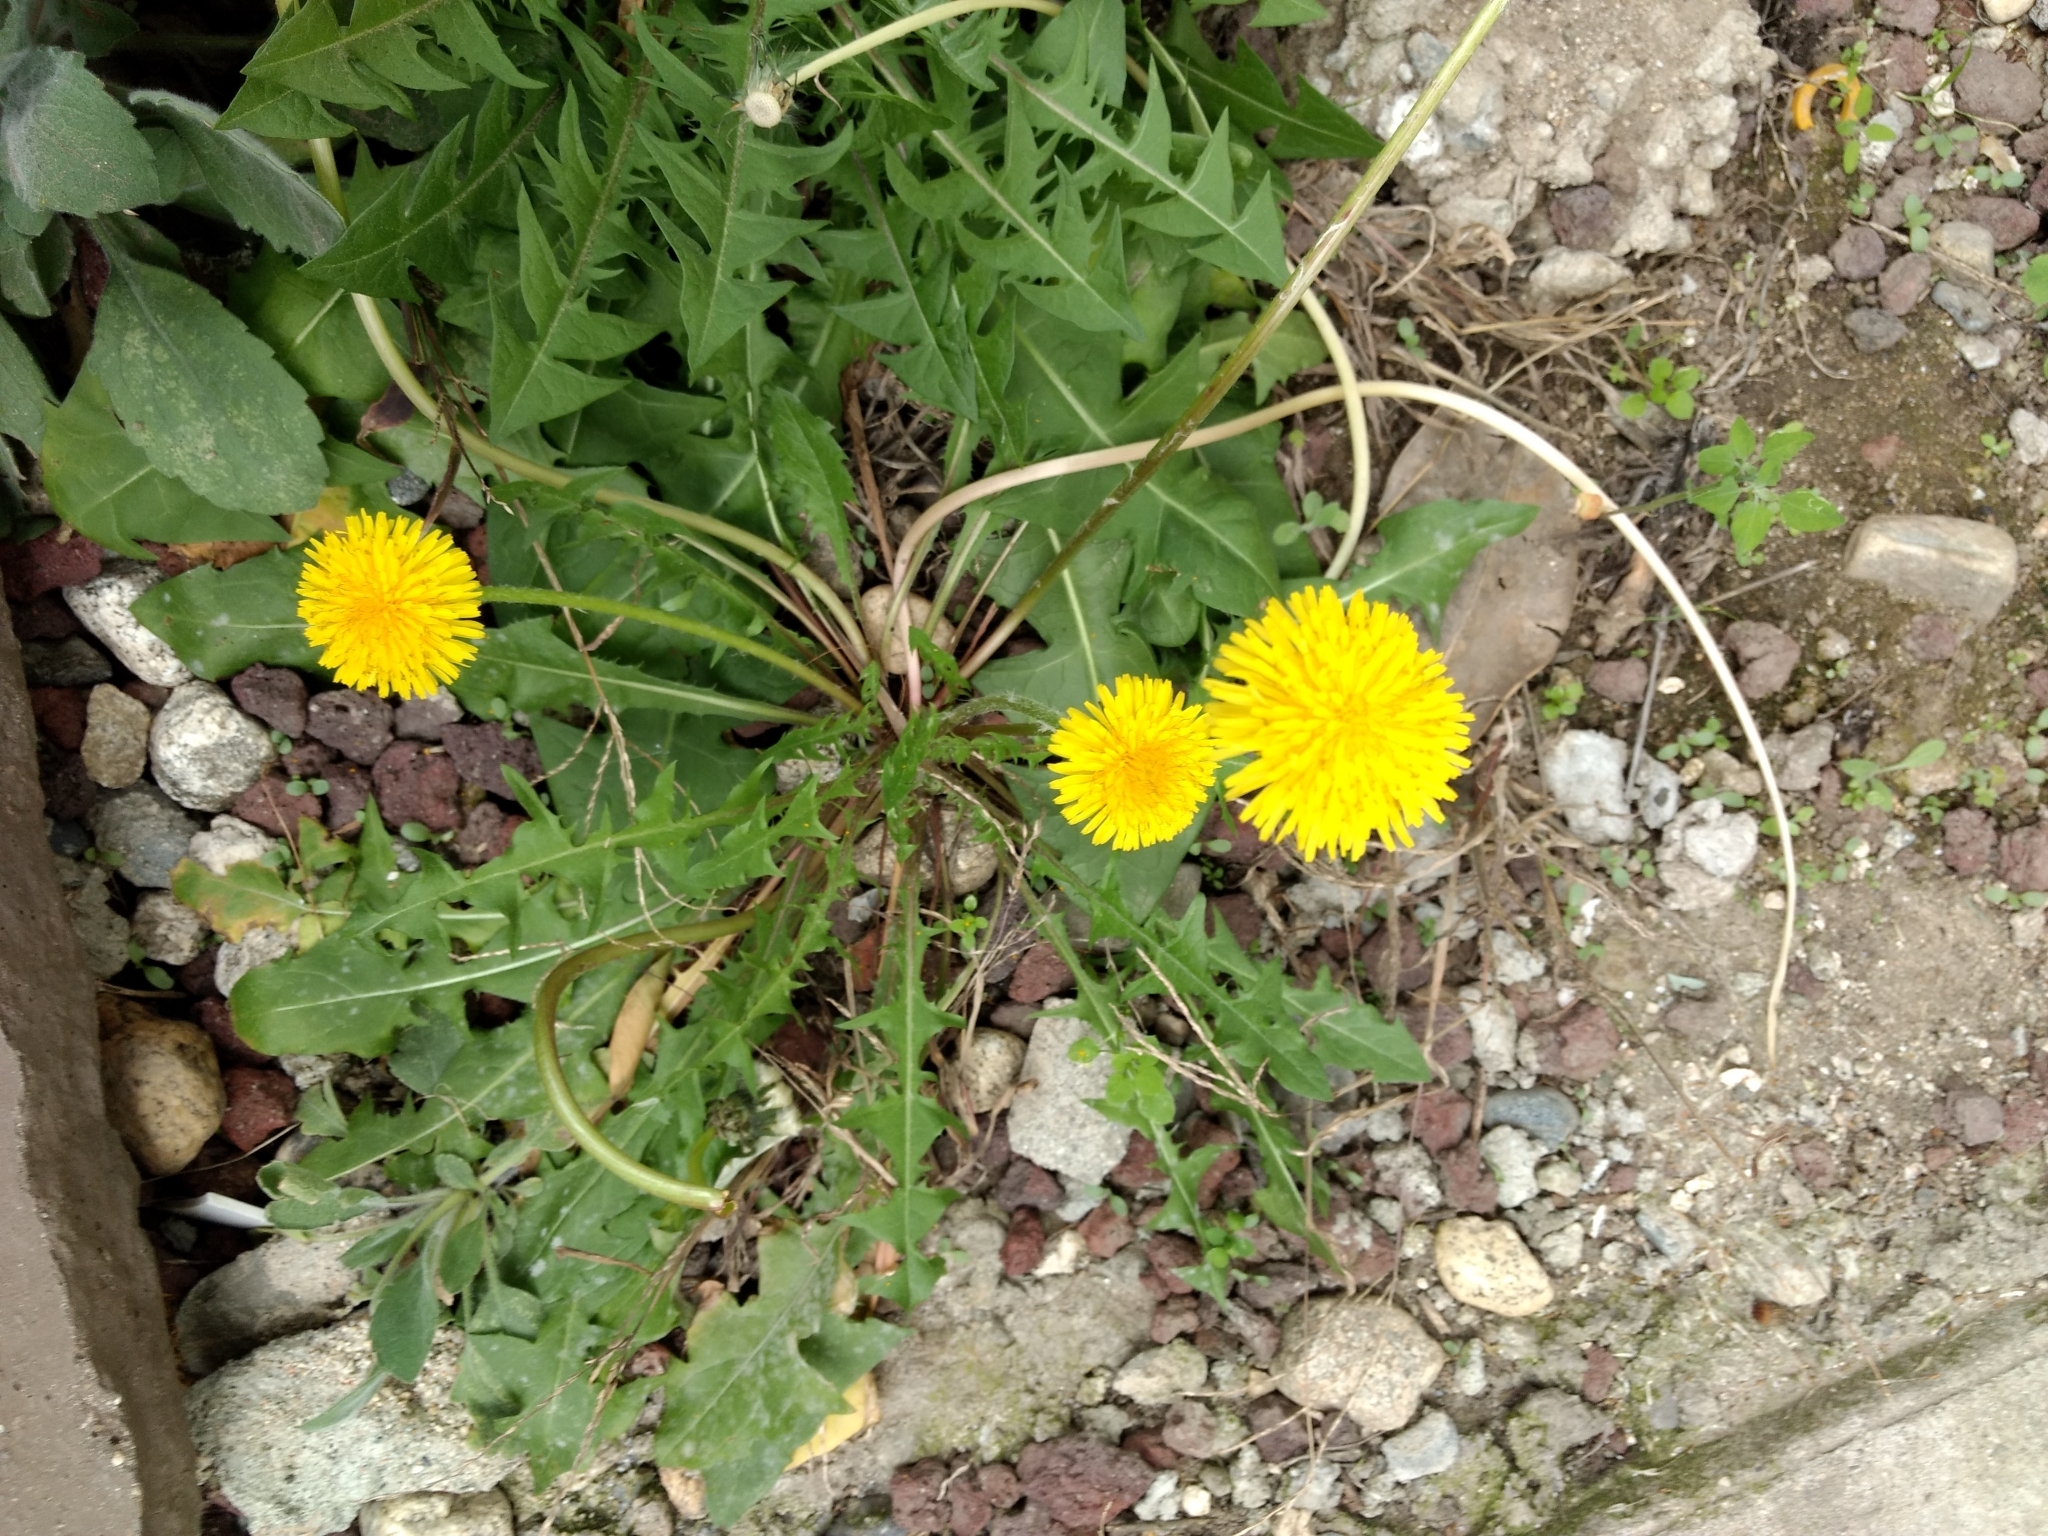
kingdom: Plantae
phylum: Tracheophyta
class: Magnoliopsida
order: Asterales
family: Asteraceae
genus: Taraxacum
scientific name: Taraxacum officinale
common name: Common dandelion
